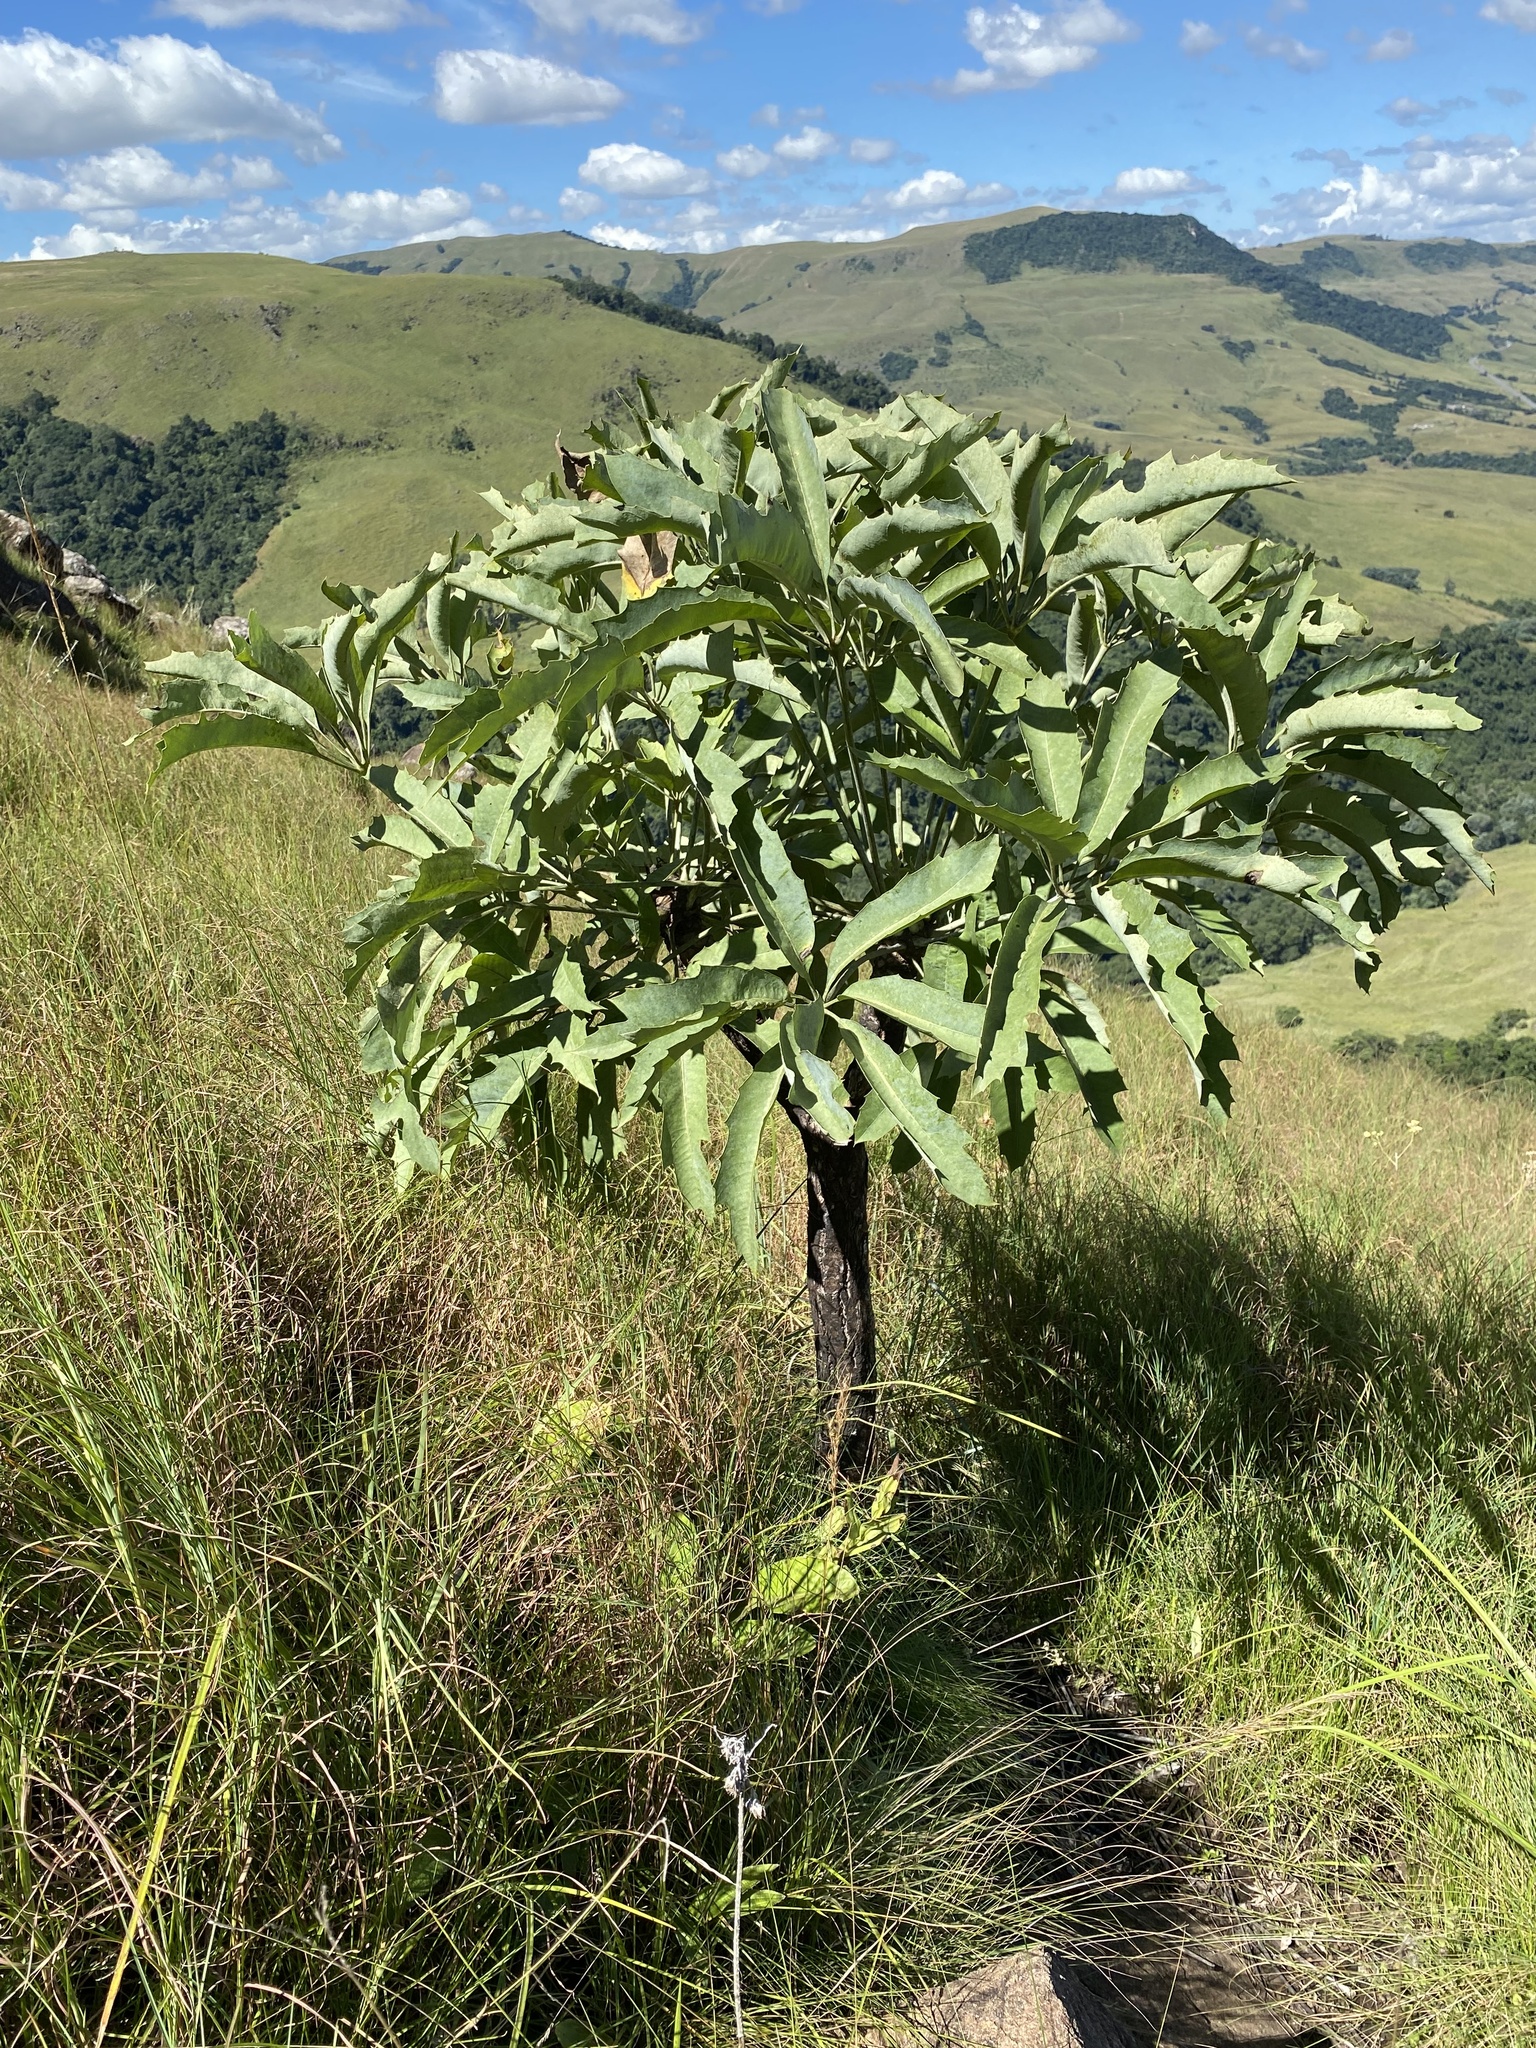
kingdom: Plantae
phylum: Tracheophyta
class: Magnoliopsida
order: Apiales
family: Araliaceae
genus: Cussonia
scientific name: Cussonia paniculata
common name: Cabbagetree
